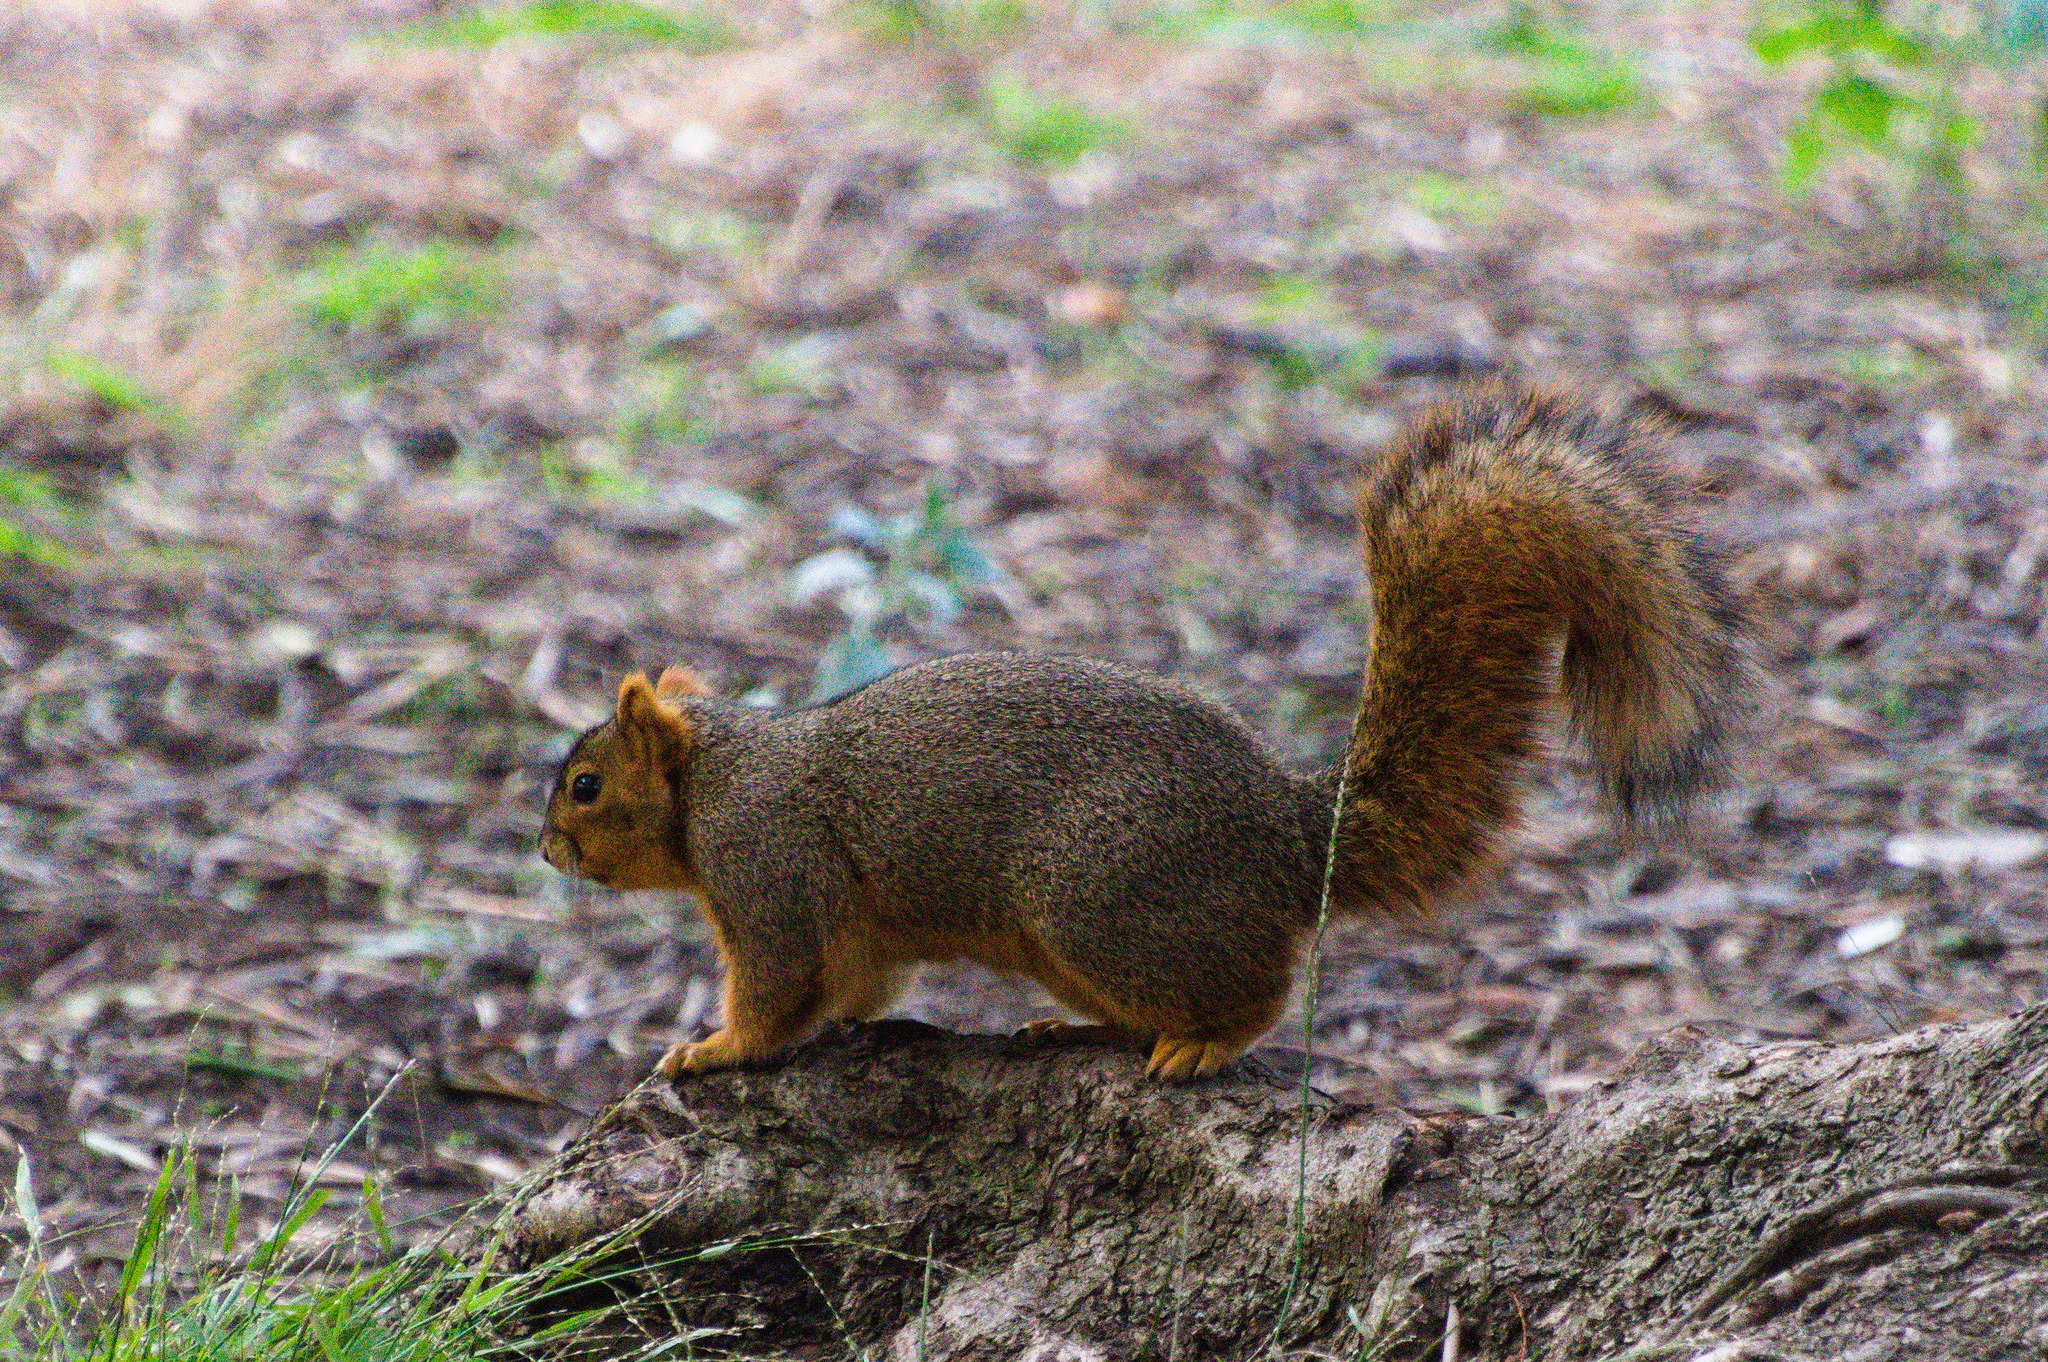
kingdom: Animalia
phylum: Chordata
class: Mammalia
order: Rodentia
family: Sciuridae
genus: Sciurus
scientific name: Sciurus niger
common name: Fox squirrel
